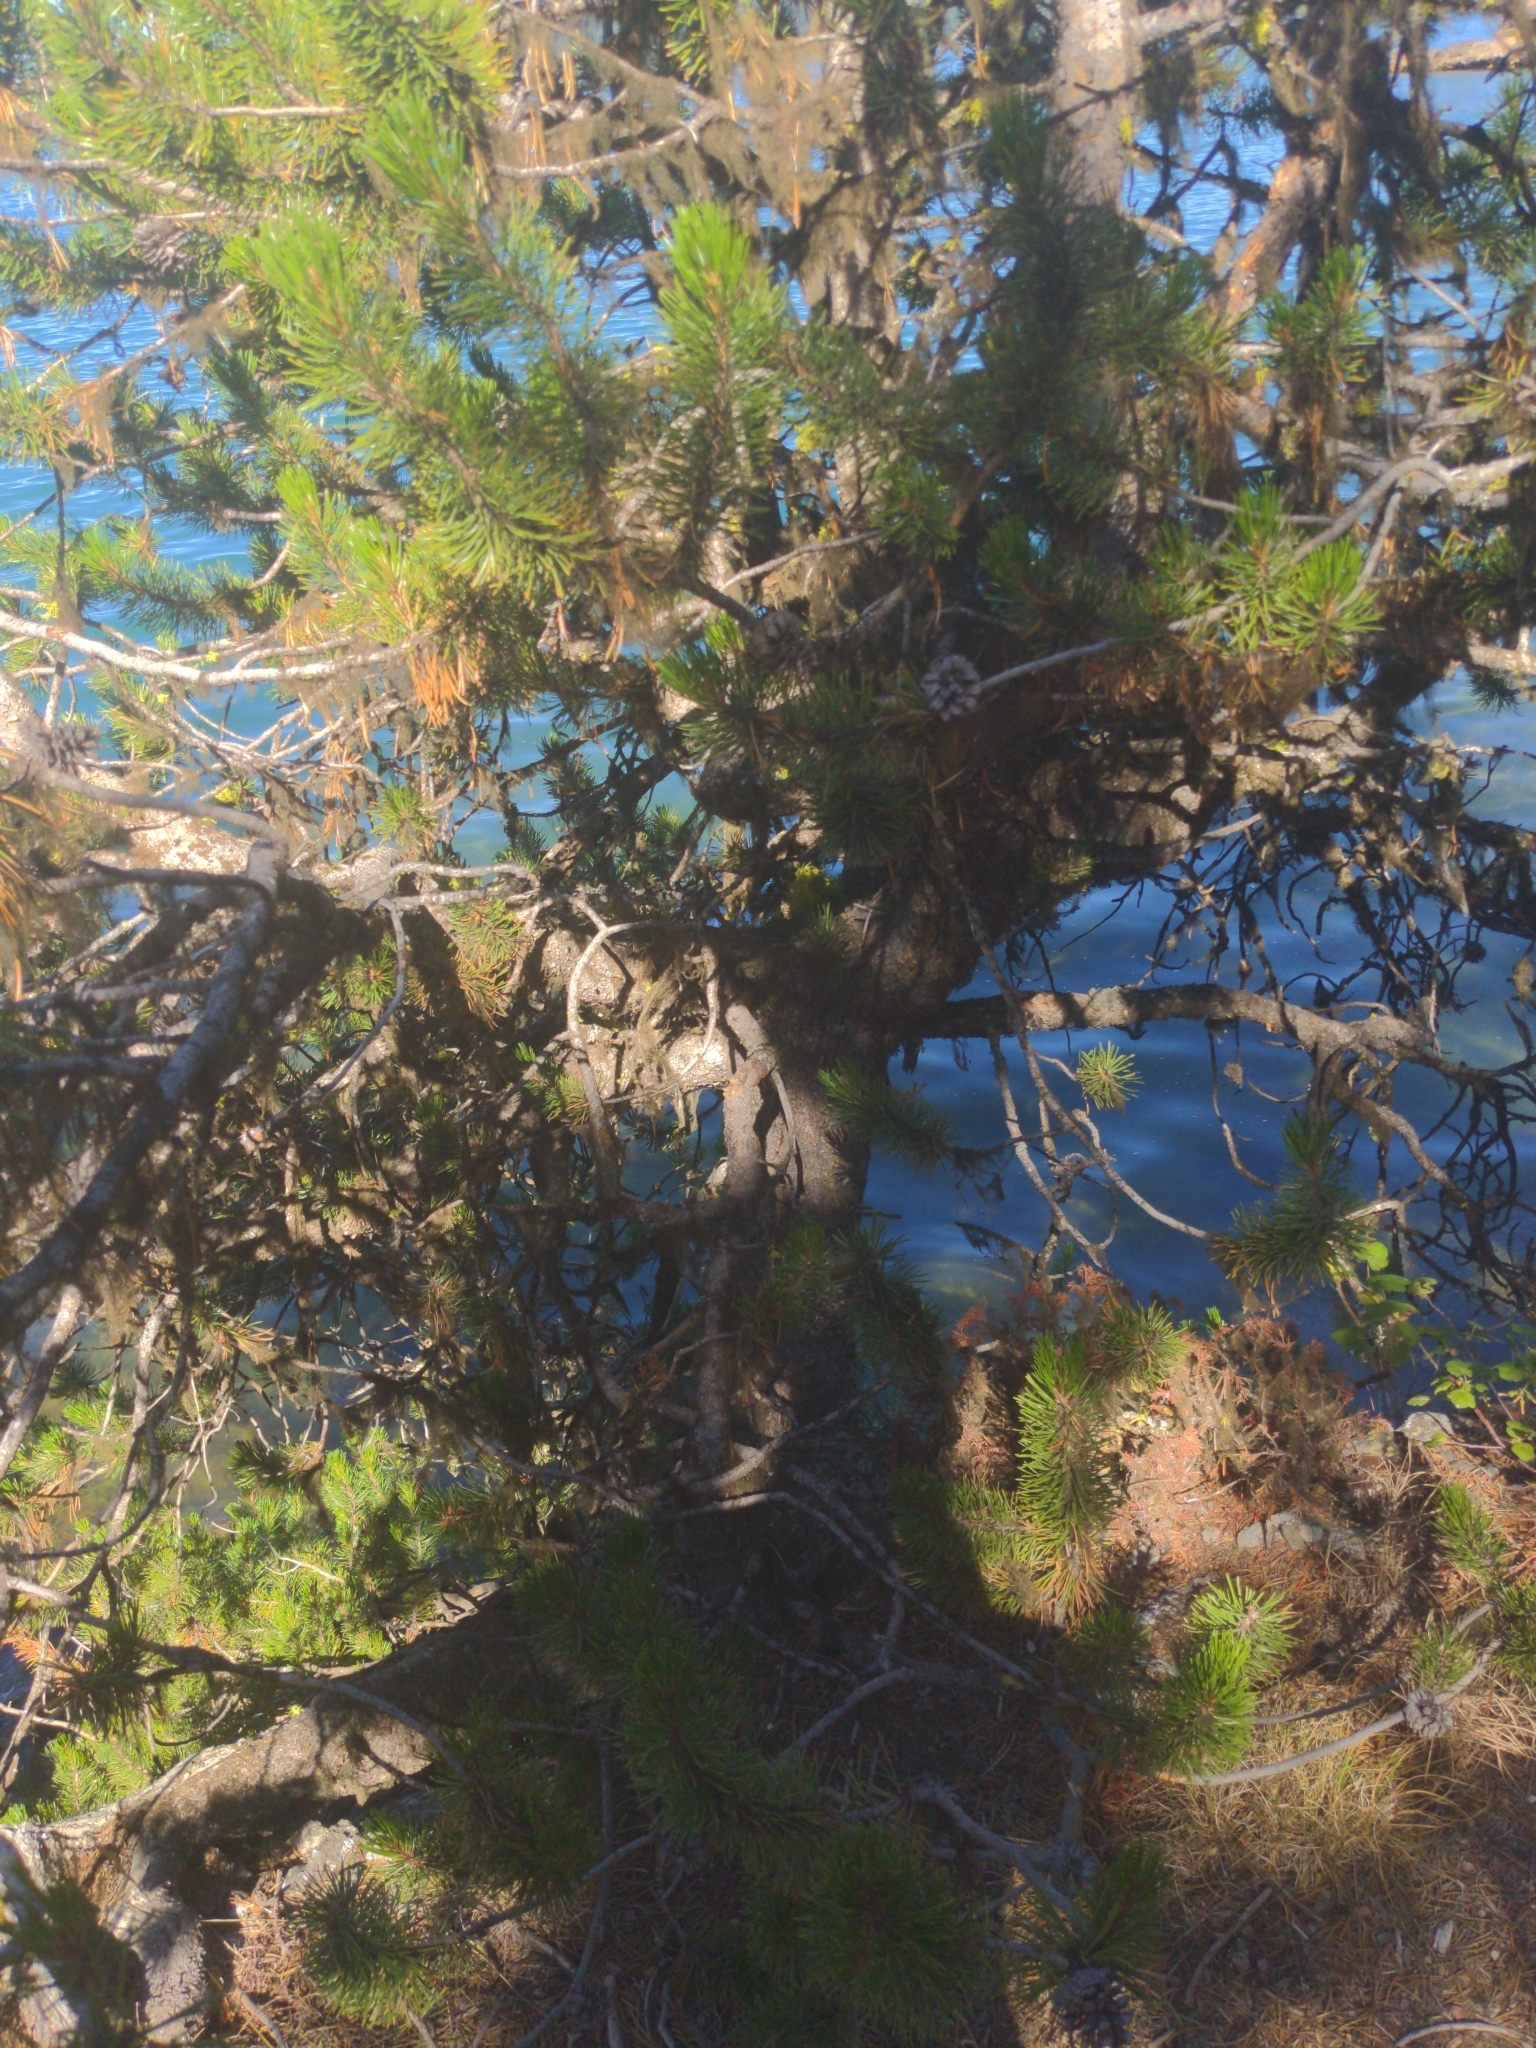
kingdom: Plantae
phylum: Tracheophyta
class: Pinopsida
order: Pinales
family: Pinaceae
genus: Pinus
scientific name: Pinus contorta
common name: Lodgepole pine
